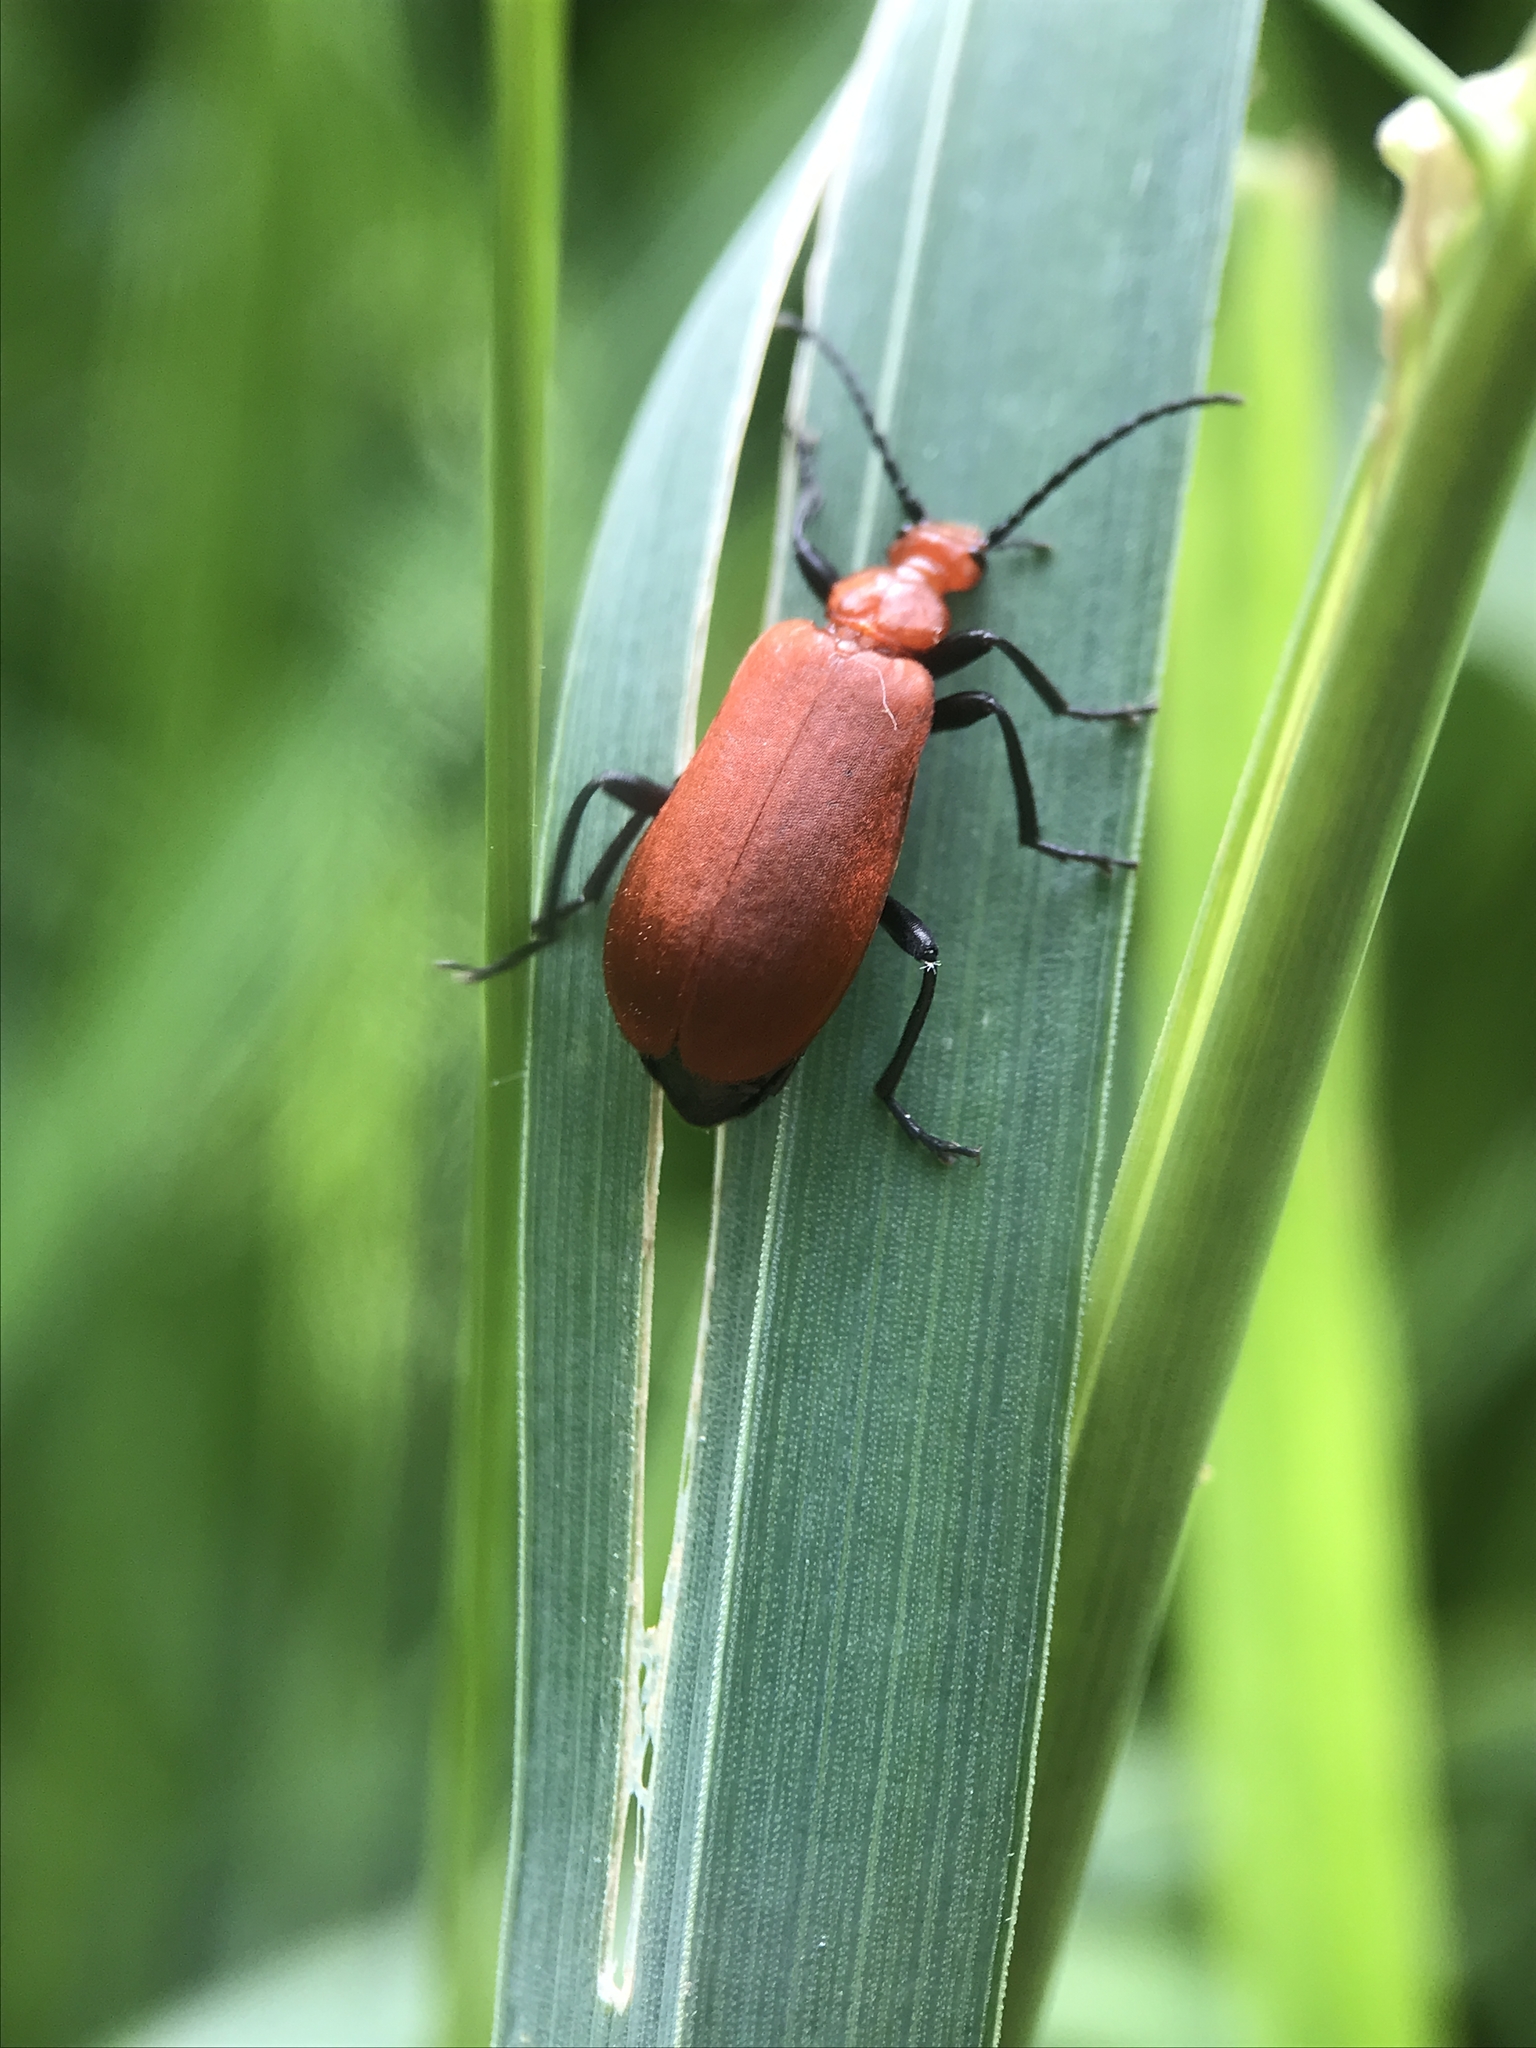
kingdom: Animalia
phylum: Arthropoda
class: Insecta
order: Coleoptera
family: Pyrochroidae
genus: Pyrochroa
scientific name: Pyrochroa serraticornis
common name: Red-headed cardinal beetle
